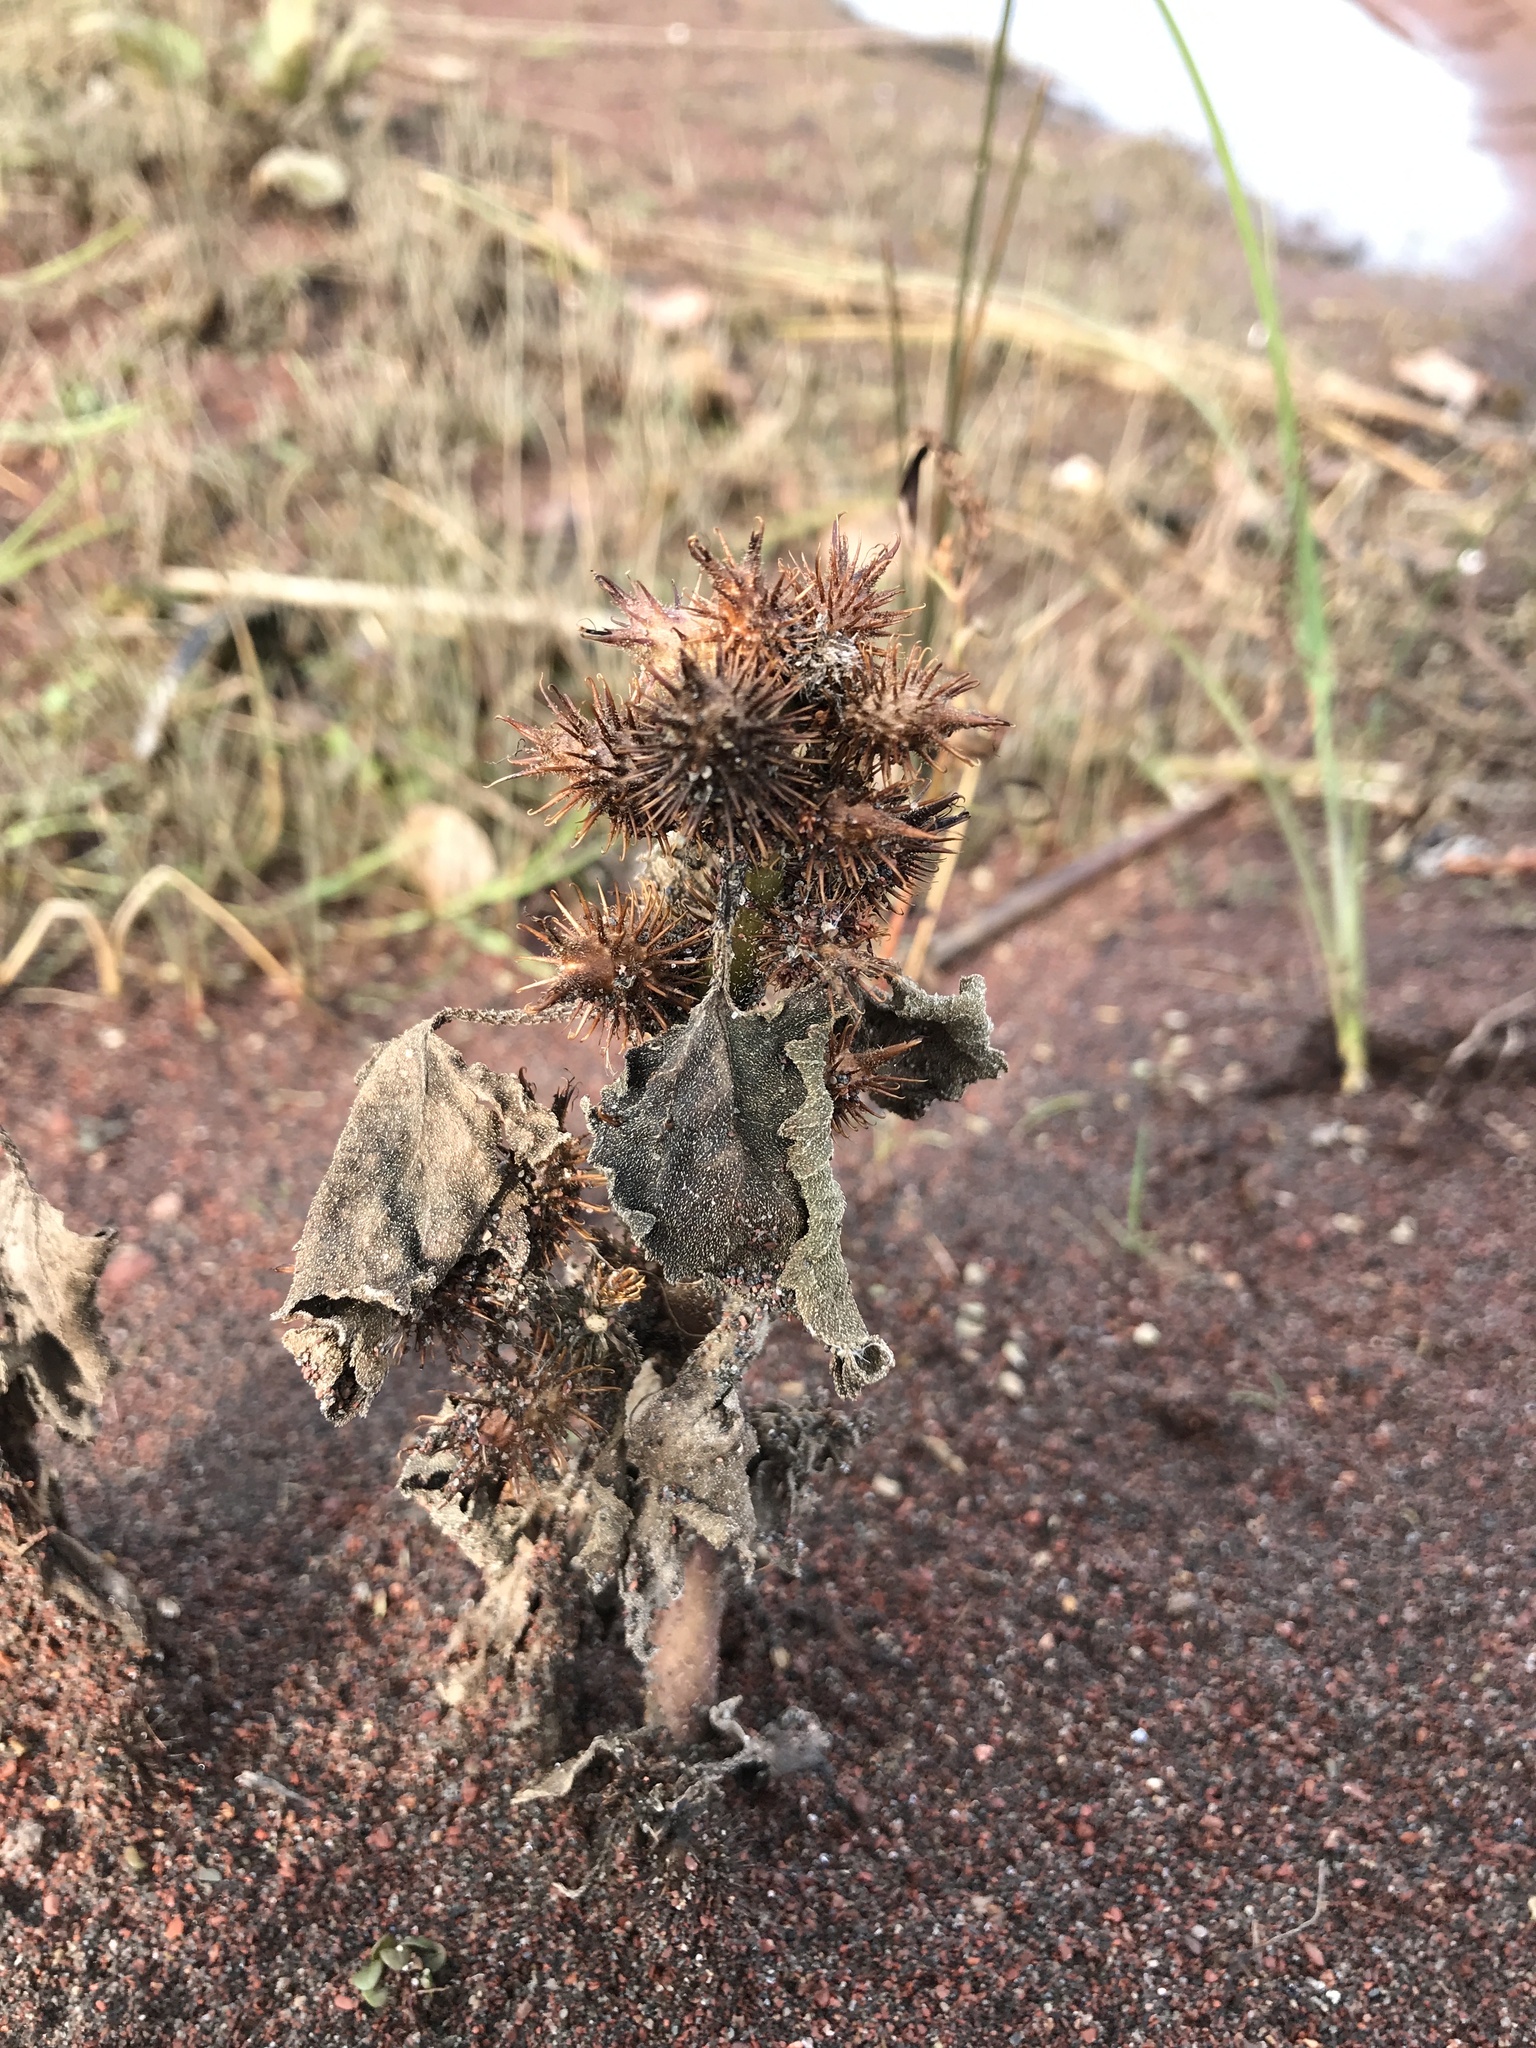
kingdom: Plantae
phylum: Tracheophyta
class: Magnoliopsida
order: Asterales
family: Asteraceae
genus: Xanthium
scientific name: Xanthium strumarium
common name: Rough cocklebur
